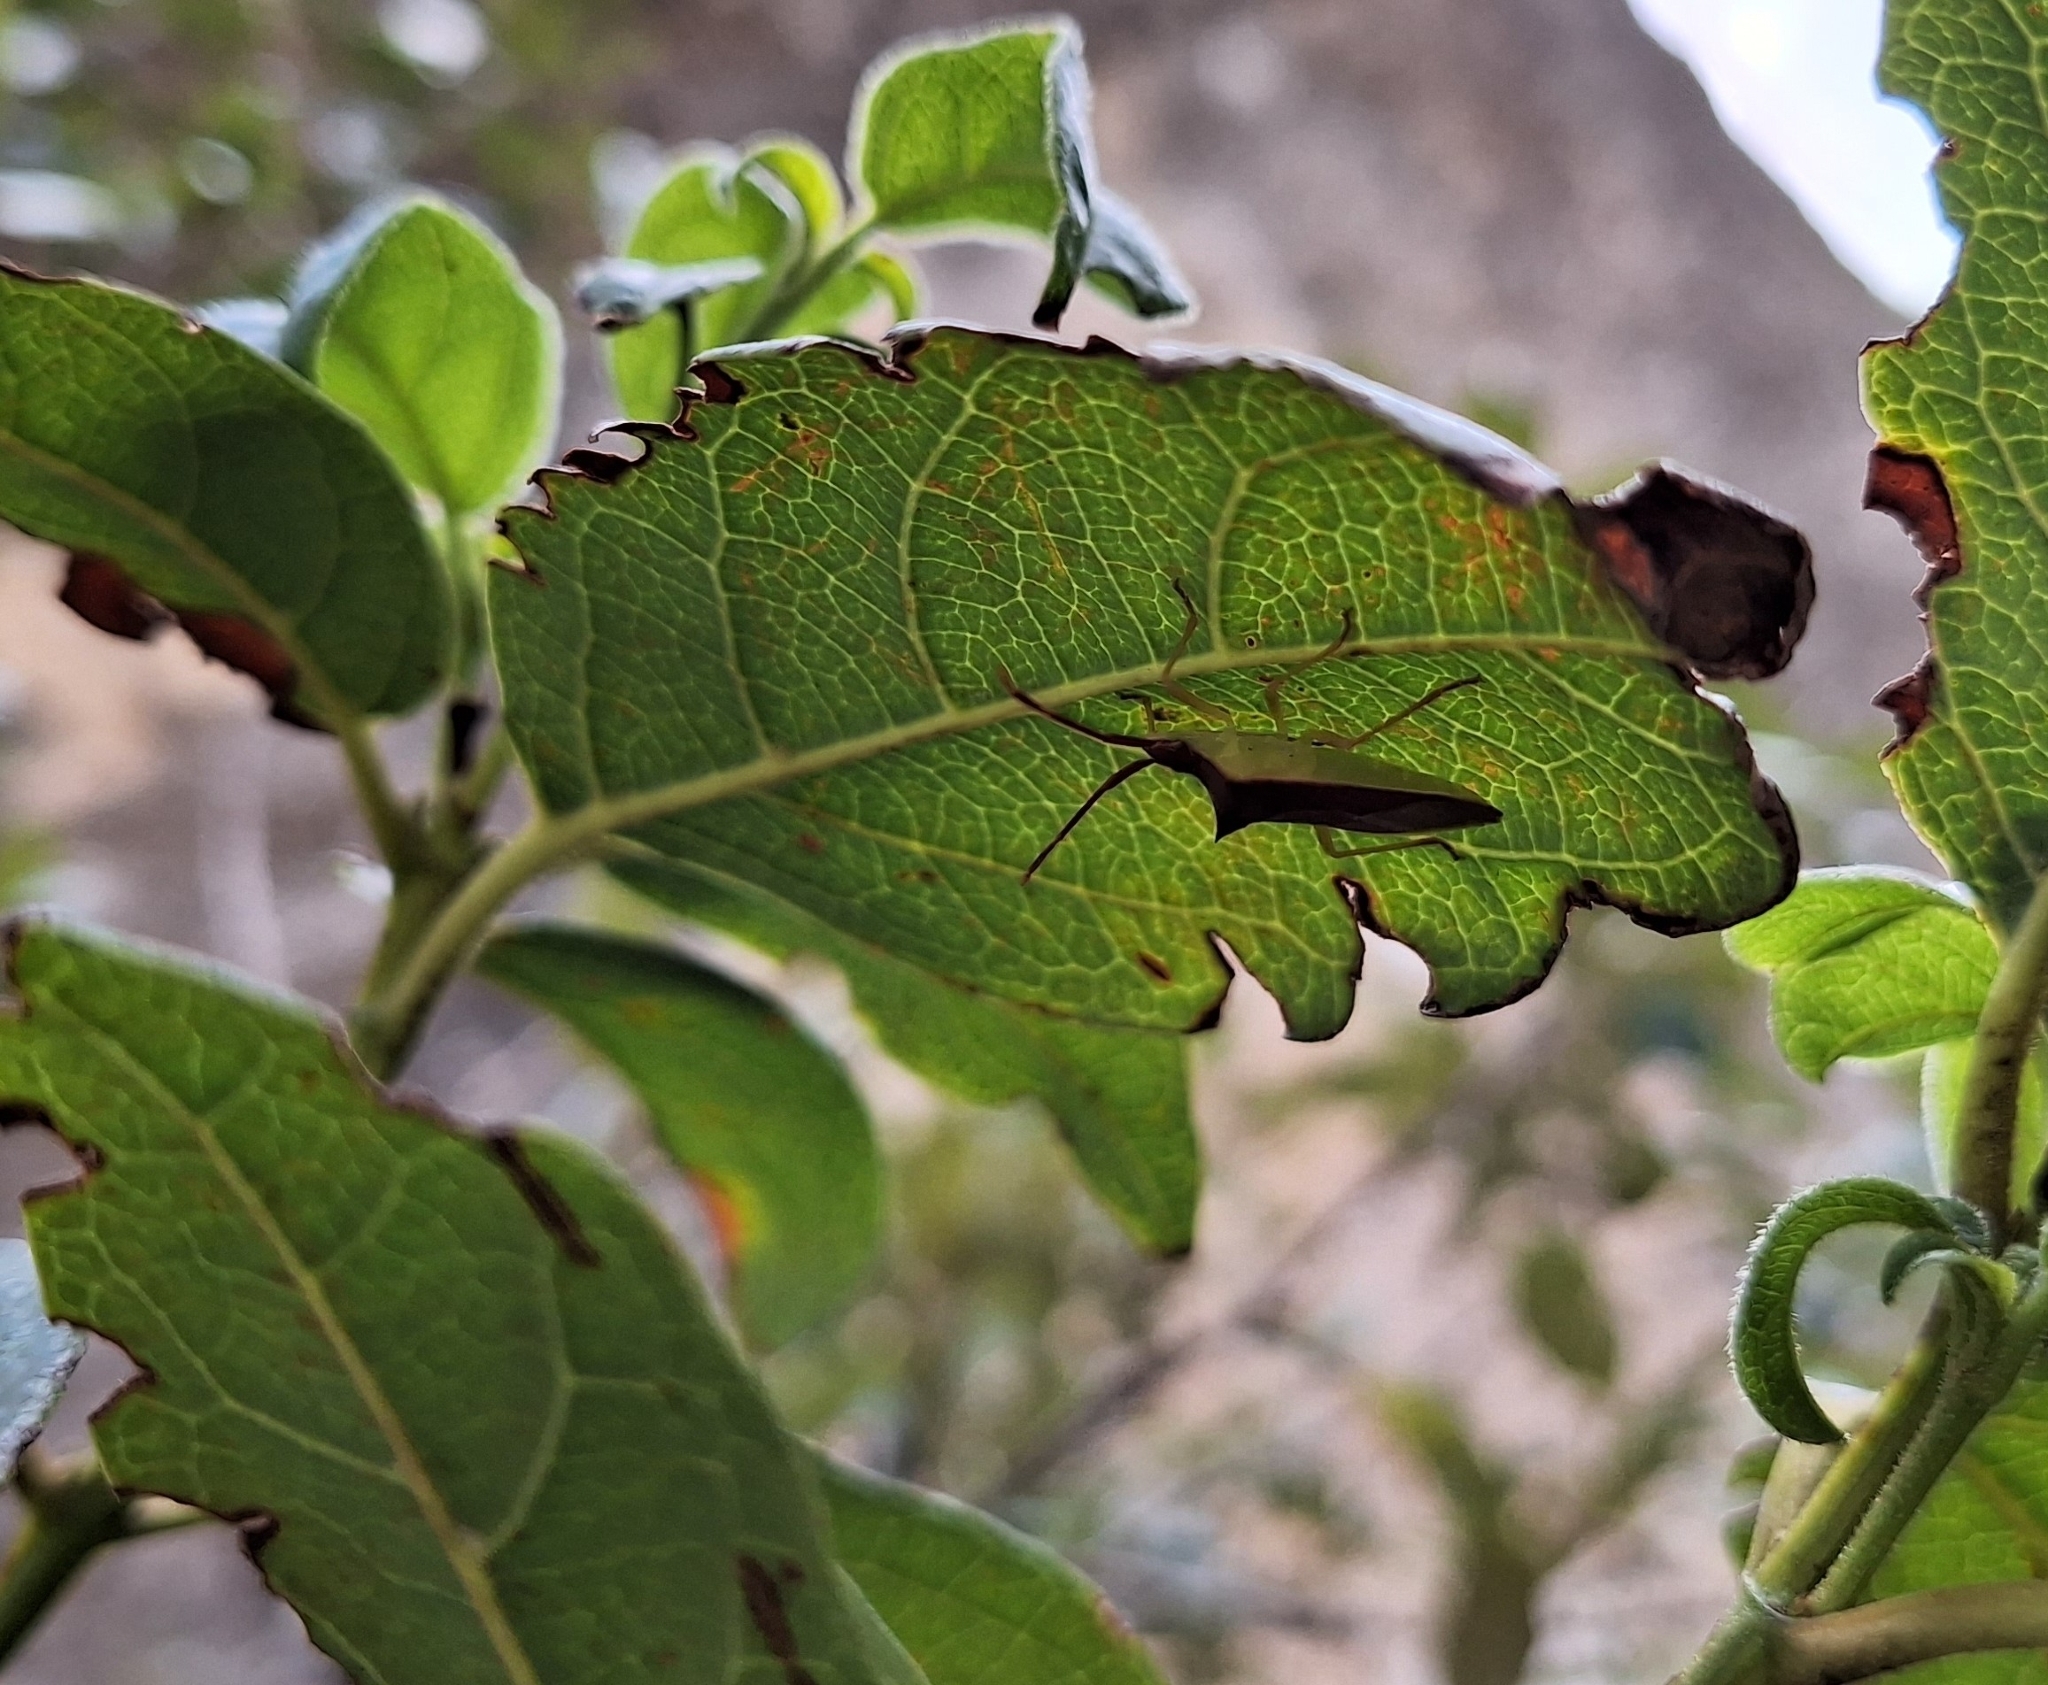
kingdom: Animalia
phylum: Arthropoda
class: Insecta
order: Hemiptera
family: Coreidae
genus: Gonocerus
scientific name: Gonocerus insidiator
